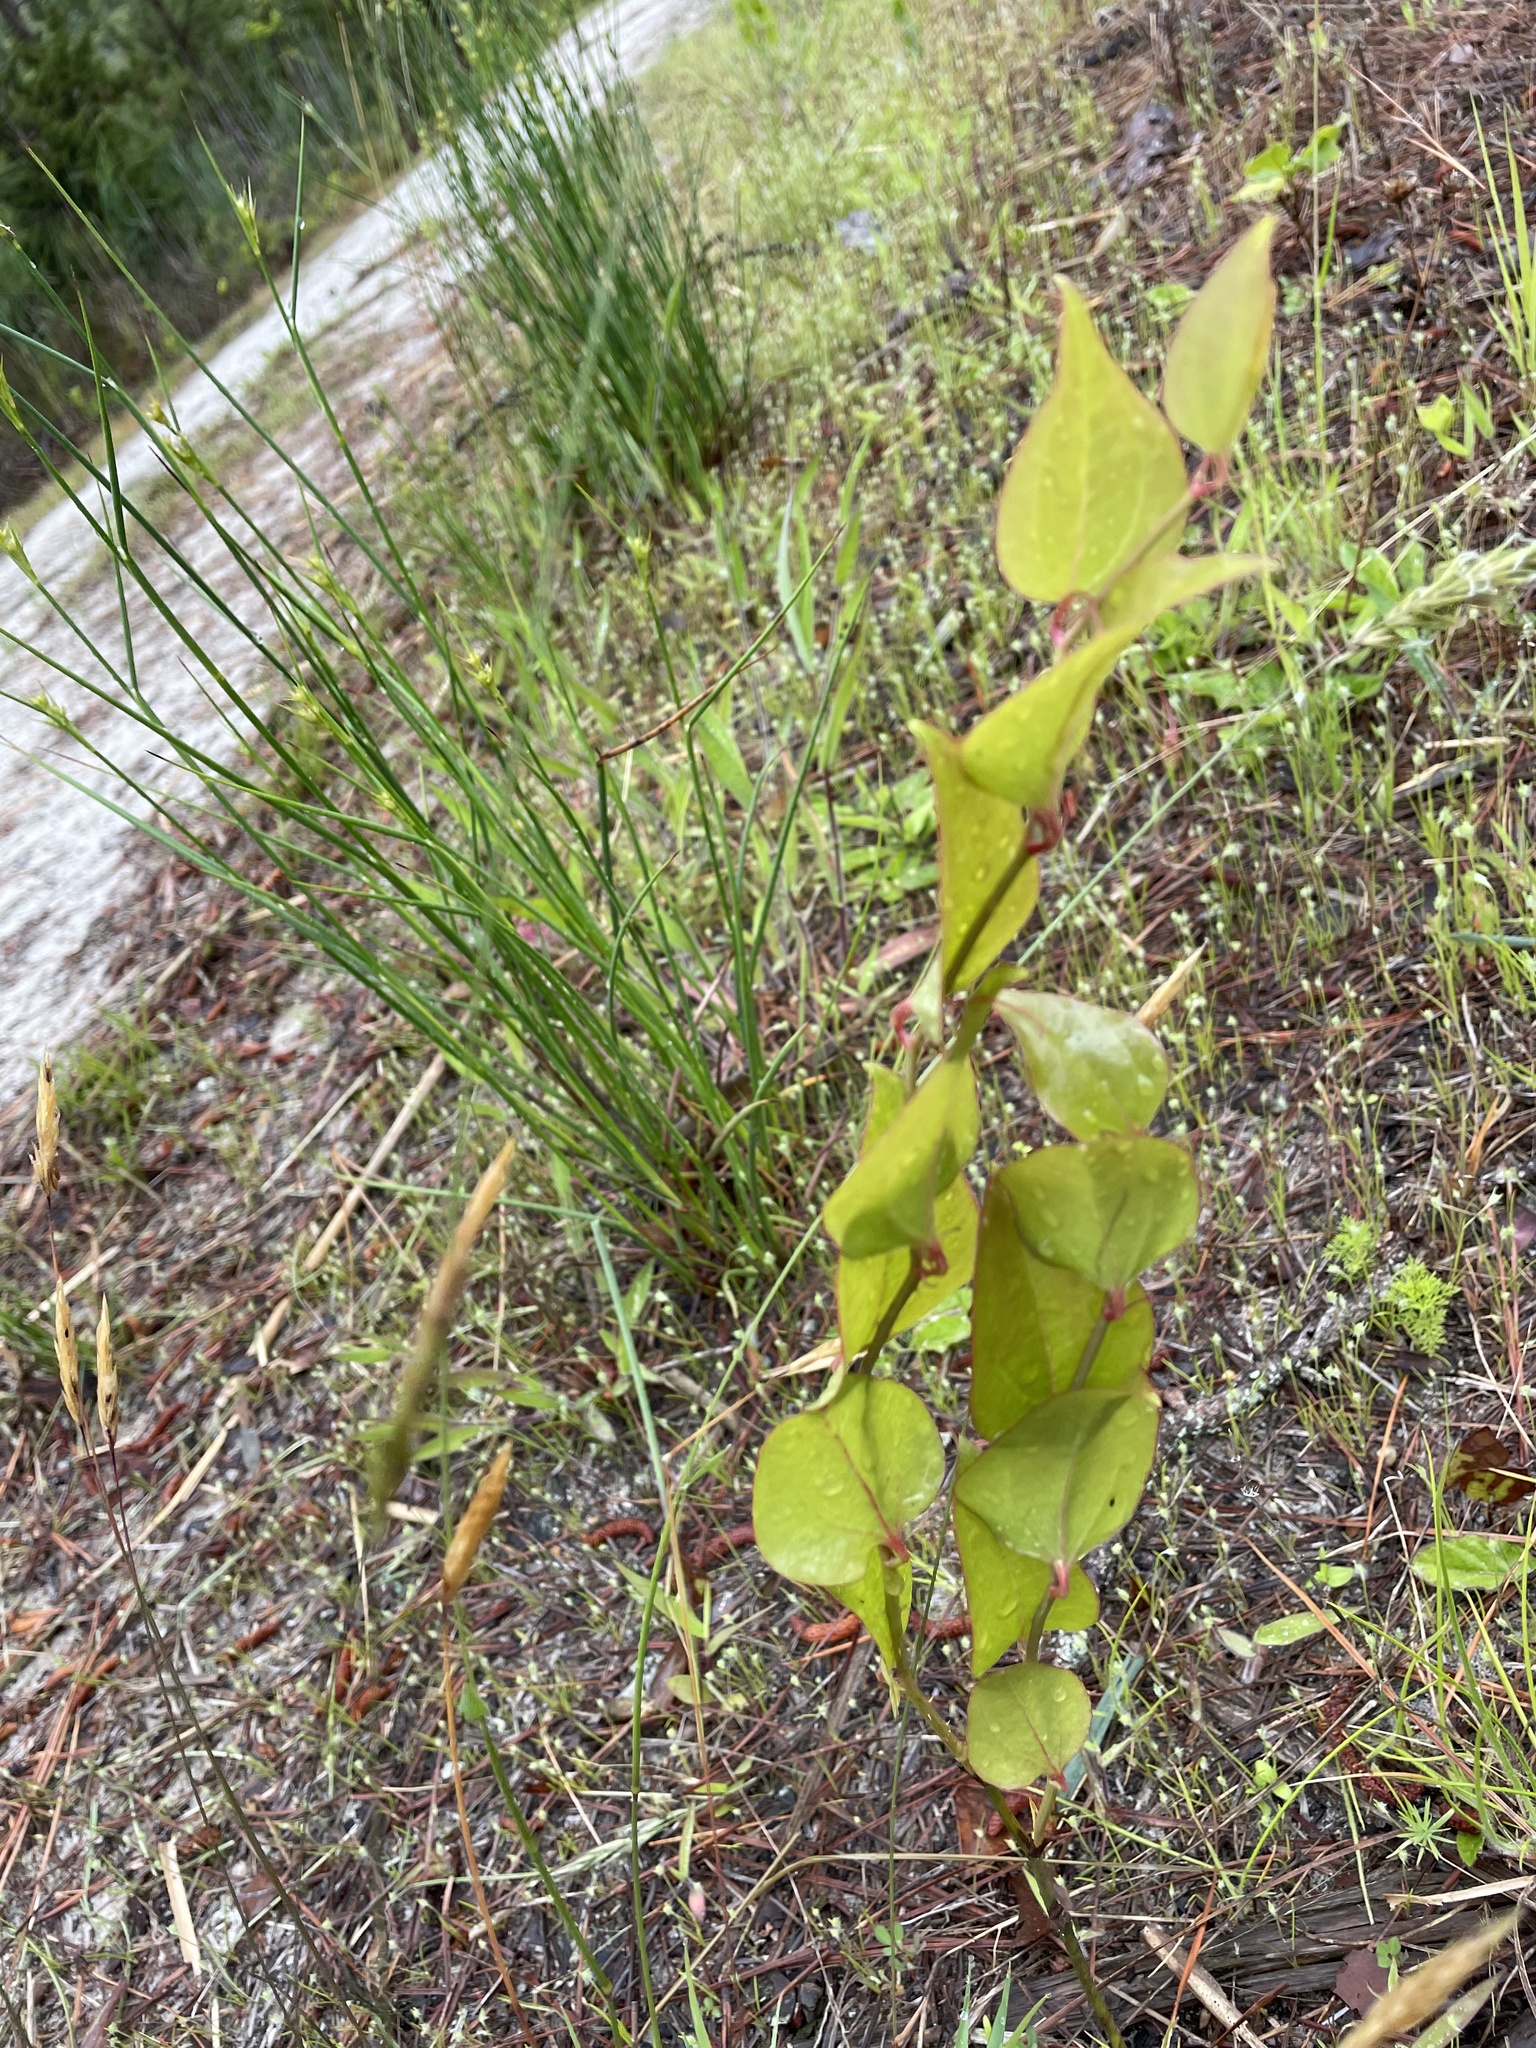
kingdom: Plantae
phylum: Tracheophyta
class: Liliopsida
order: Liliales
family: Smilacaceae
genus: Smilax
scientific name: Smilax rotundifolia
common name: Bullbriar
